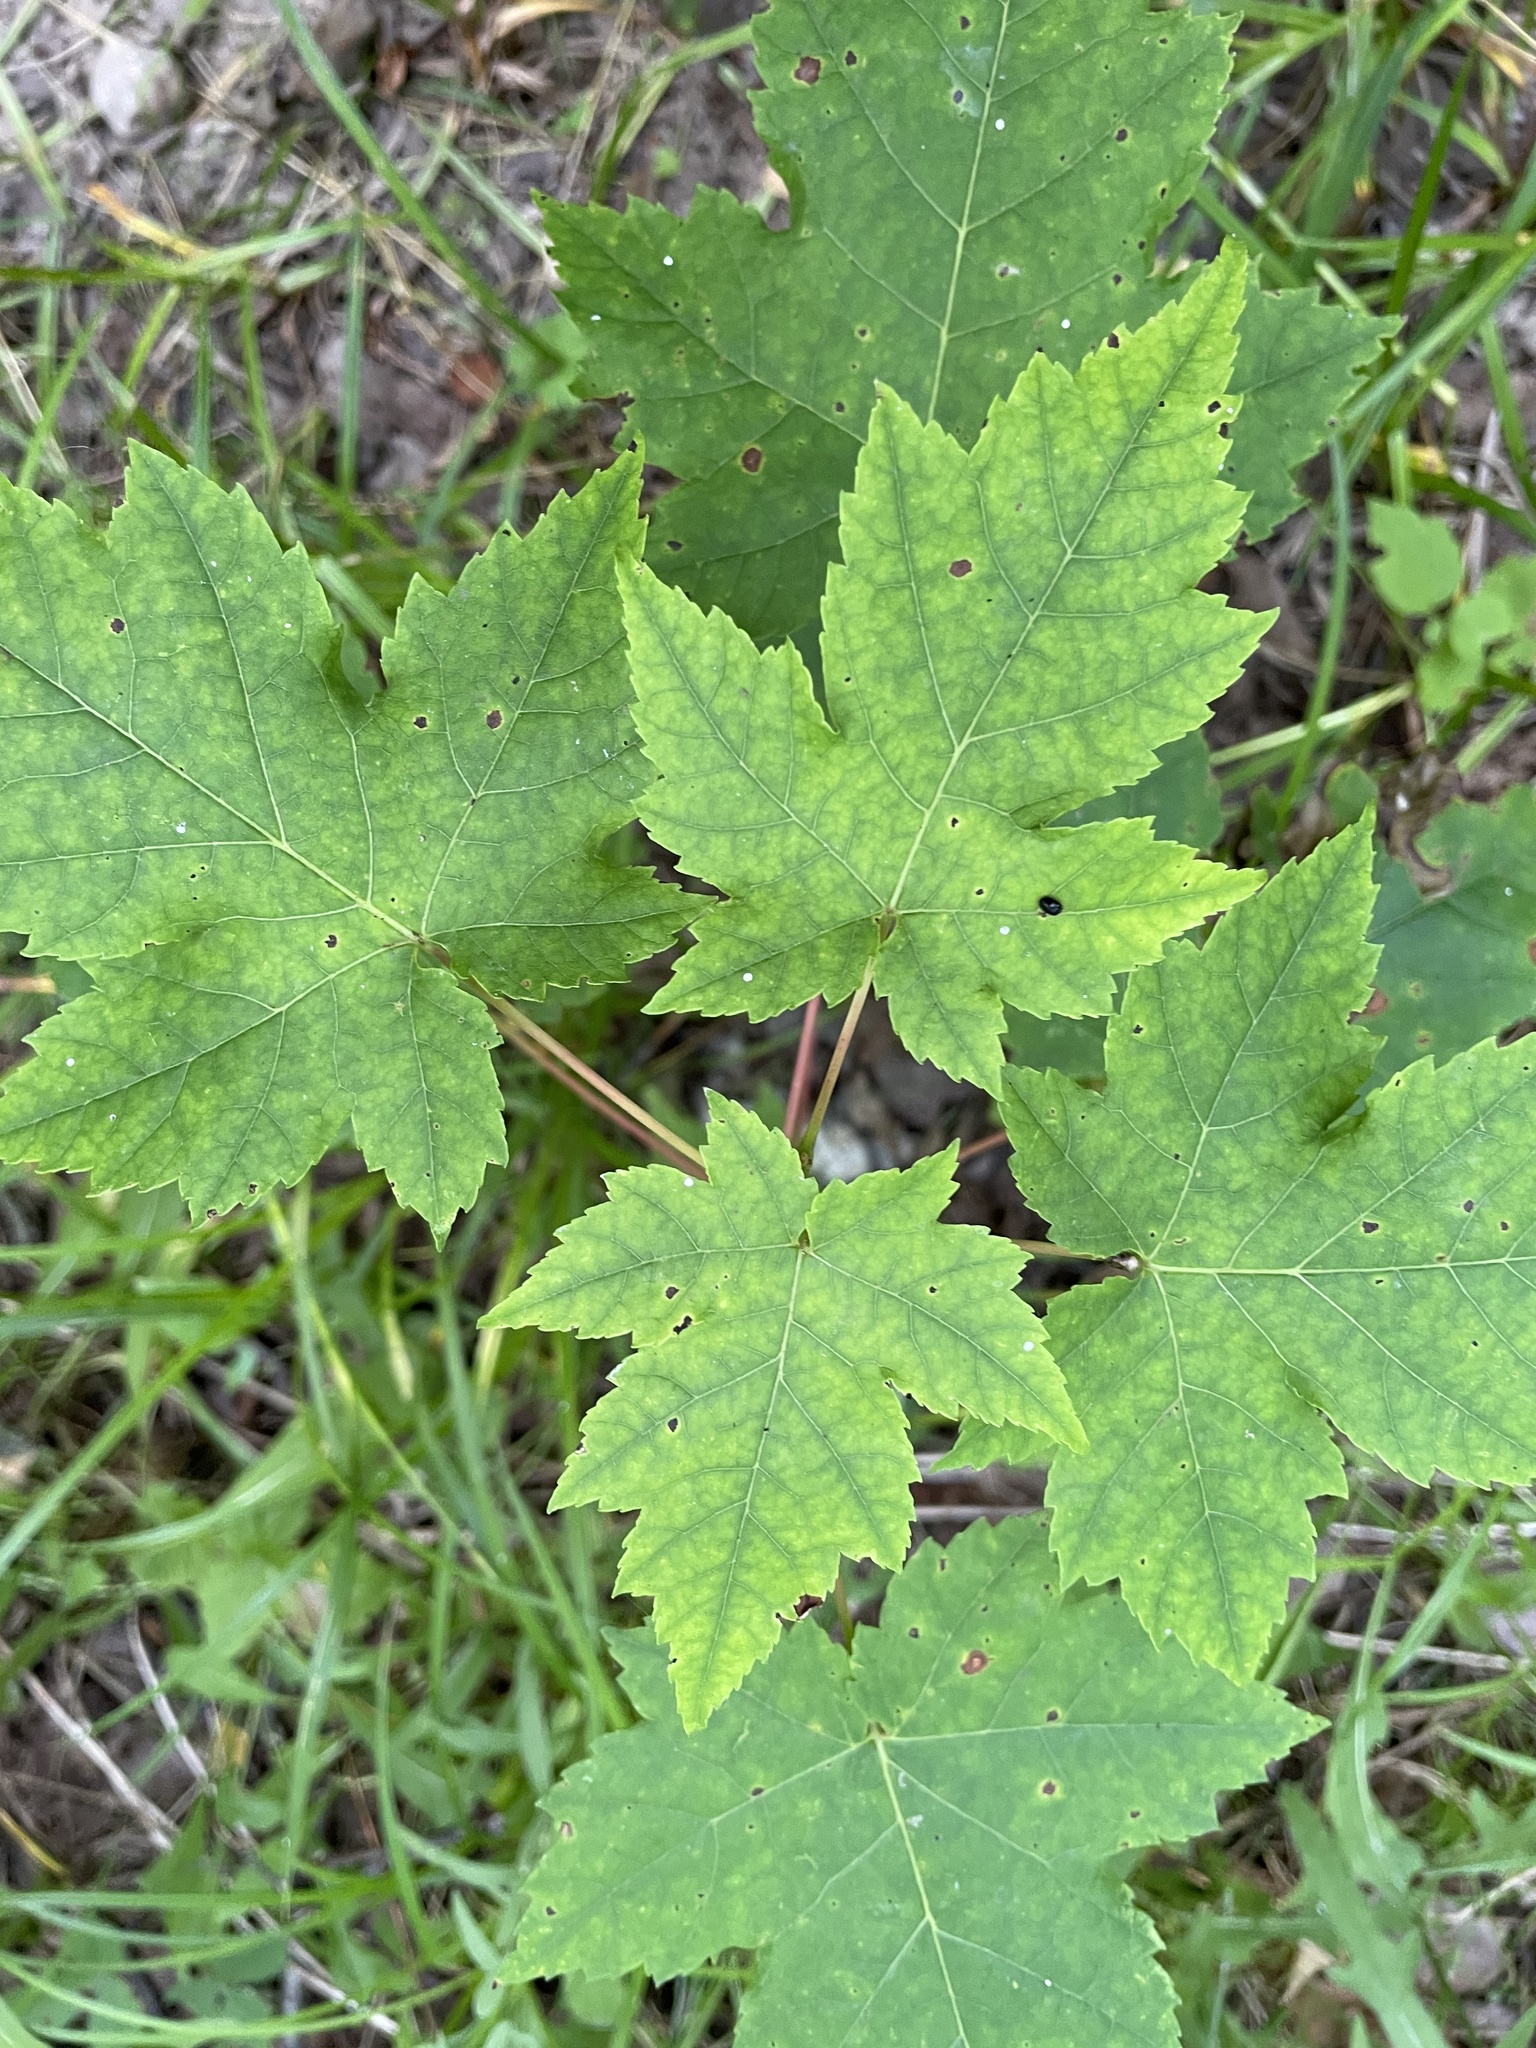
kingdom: Plantae
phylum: Tracheophyta
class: Magnoliopsida
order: Sapindales
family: Sapindaceae
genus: Acer
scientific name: Acer rubrum
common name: Red maple
